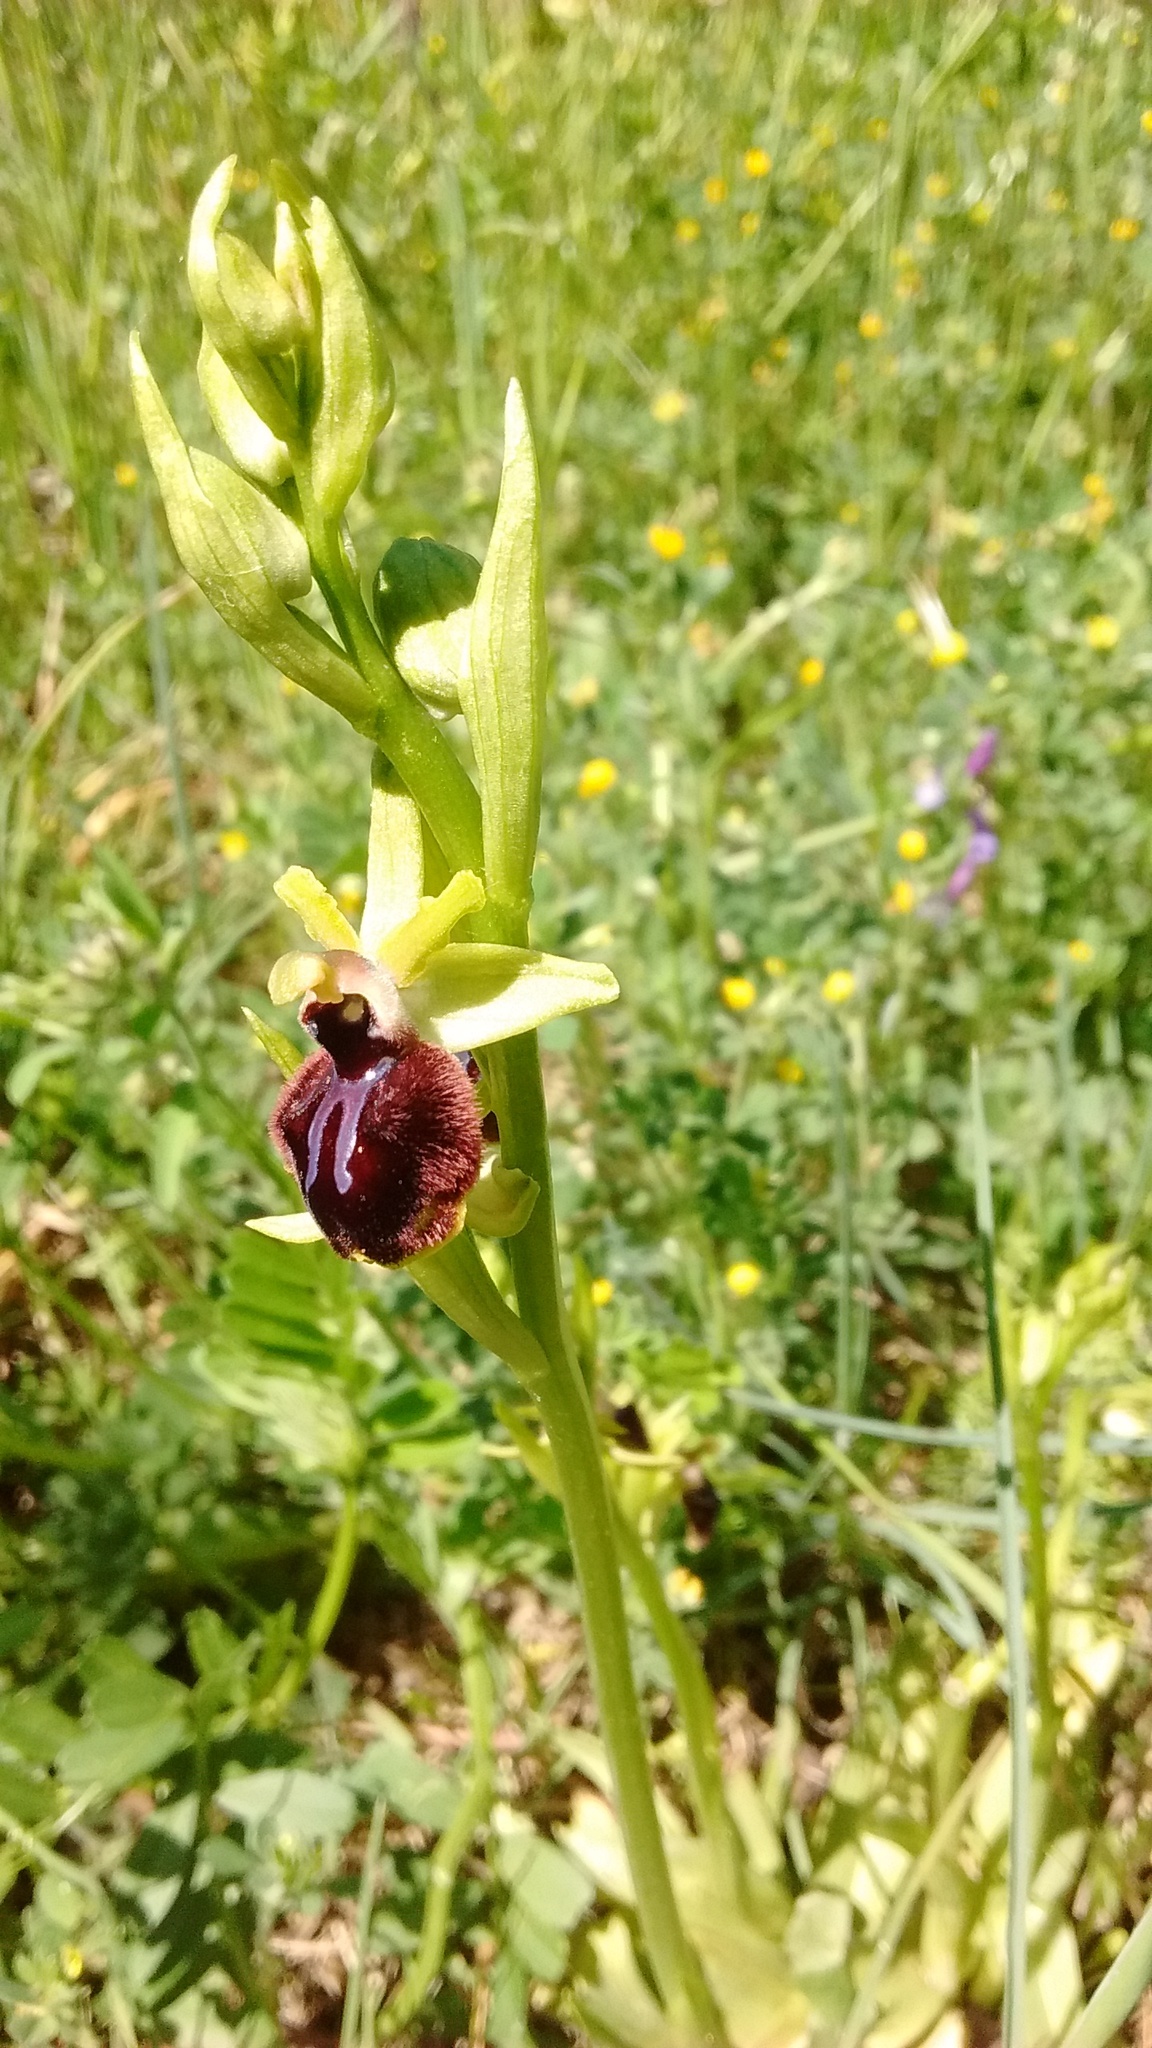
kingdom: Plantae
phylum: Tracheophyta
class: Liliopsida
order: Asparagales
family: Orchidaceae
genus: Ophrys
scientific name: Ophrys sphegodes
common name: Early spider-orchid
